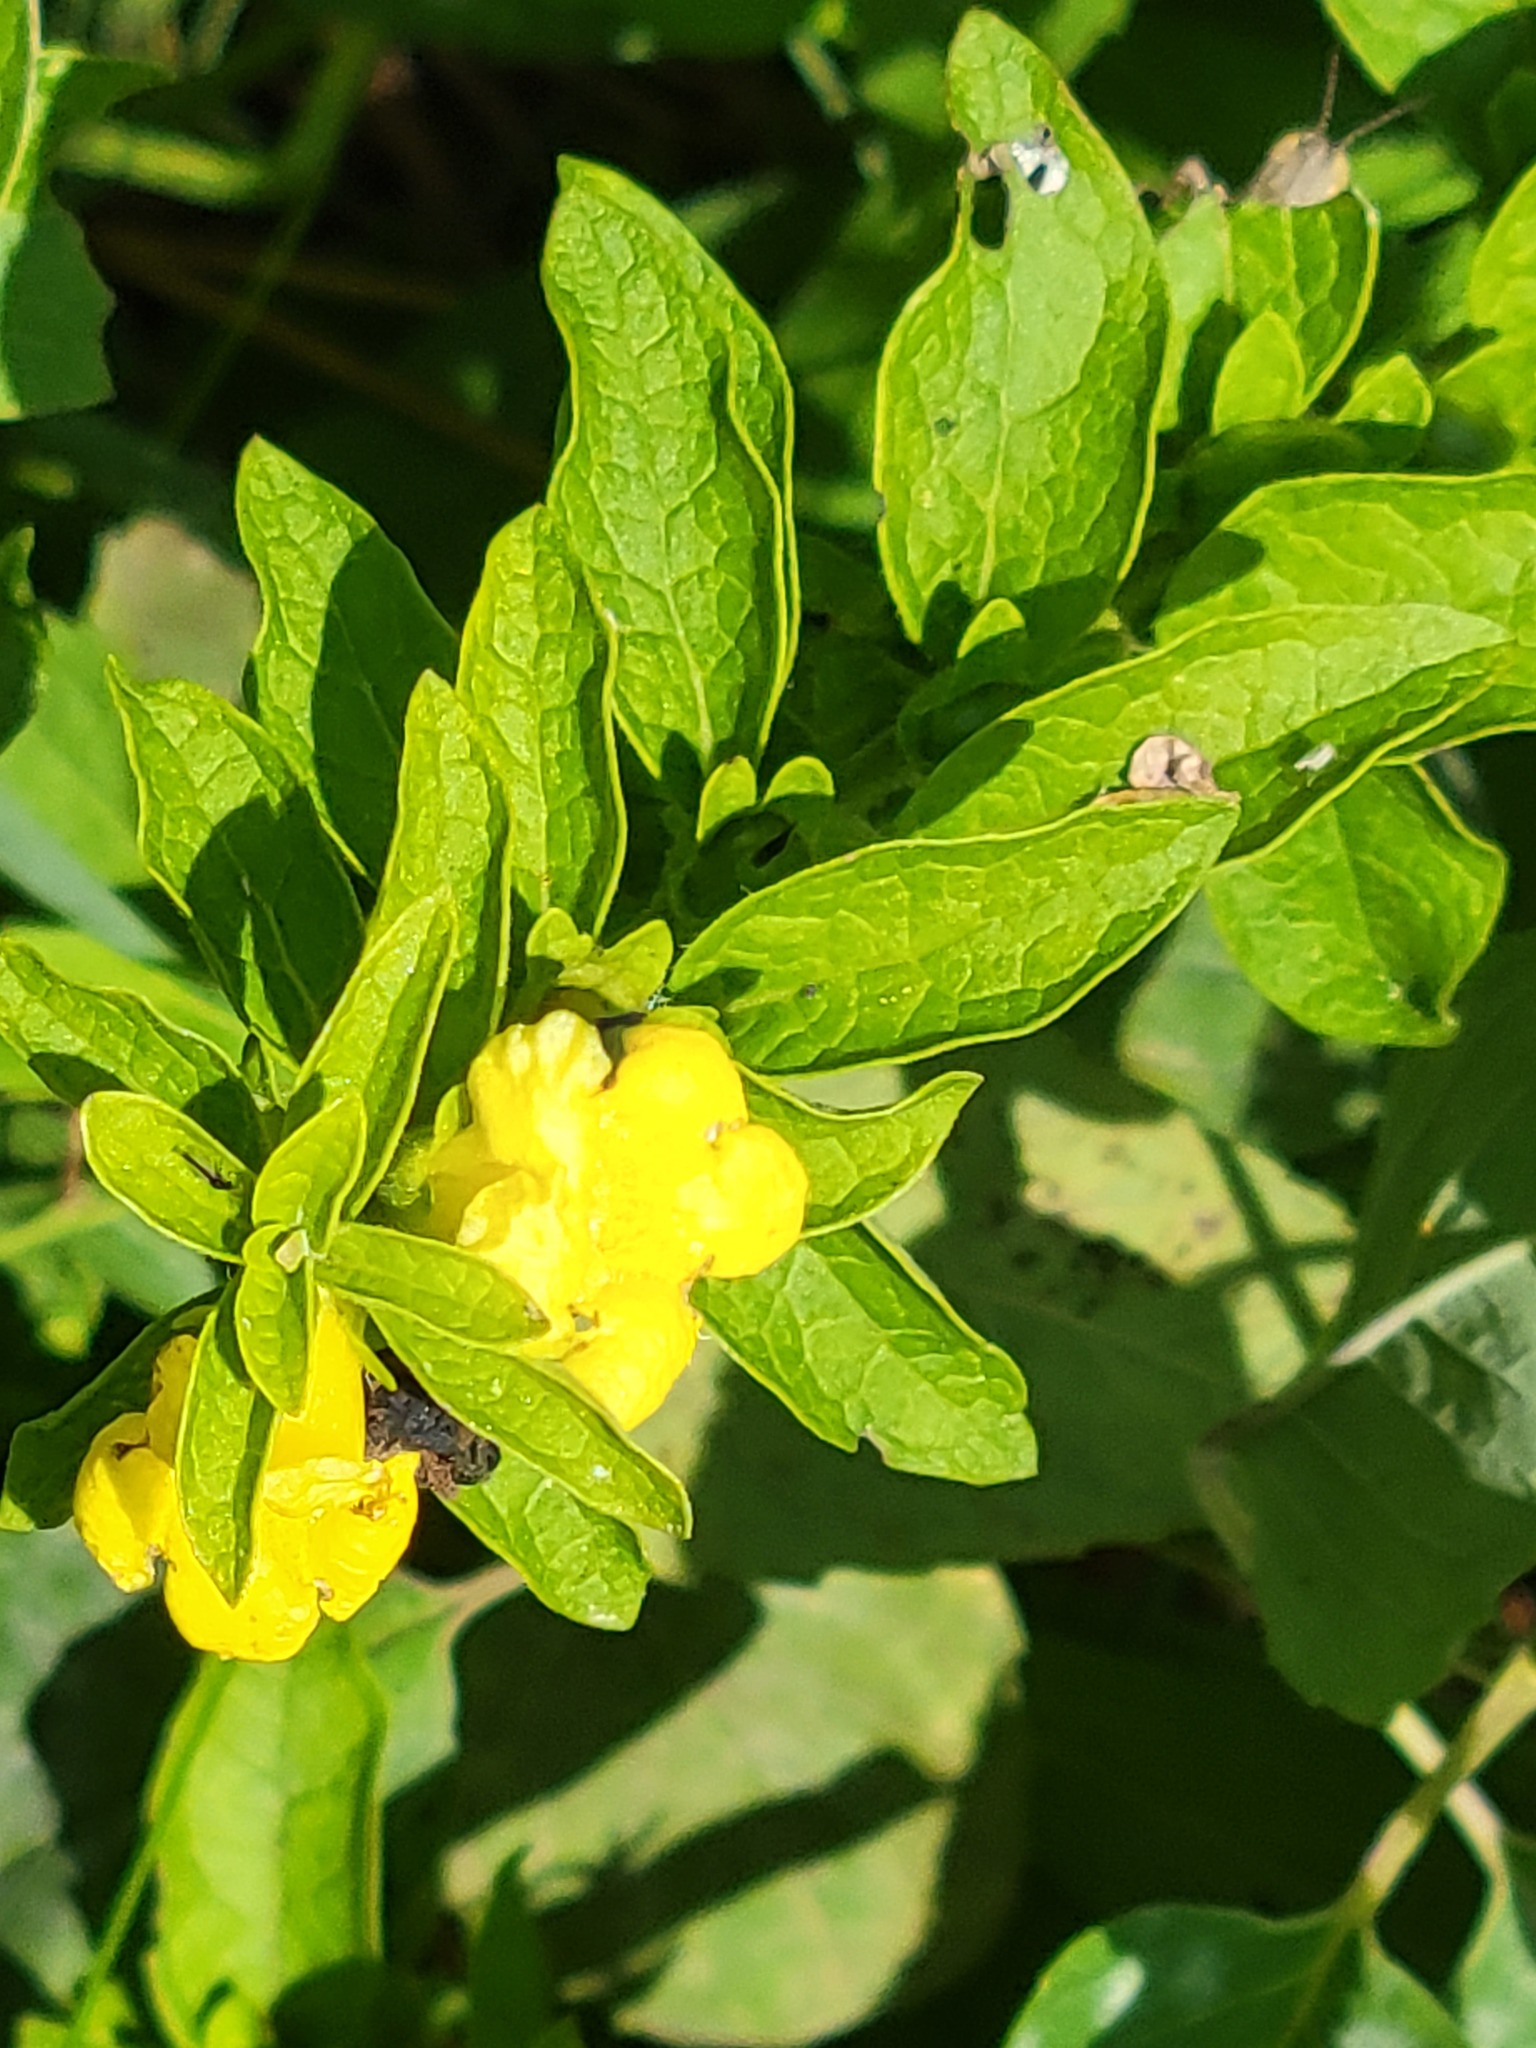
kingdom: Plantae
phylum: Tracheophyta
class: Magnoliopsida
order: Lamiales
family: Orobanchaceae
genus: Dasistoma
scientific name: Dasistoma macrophyllum
